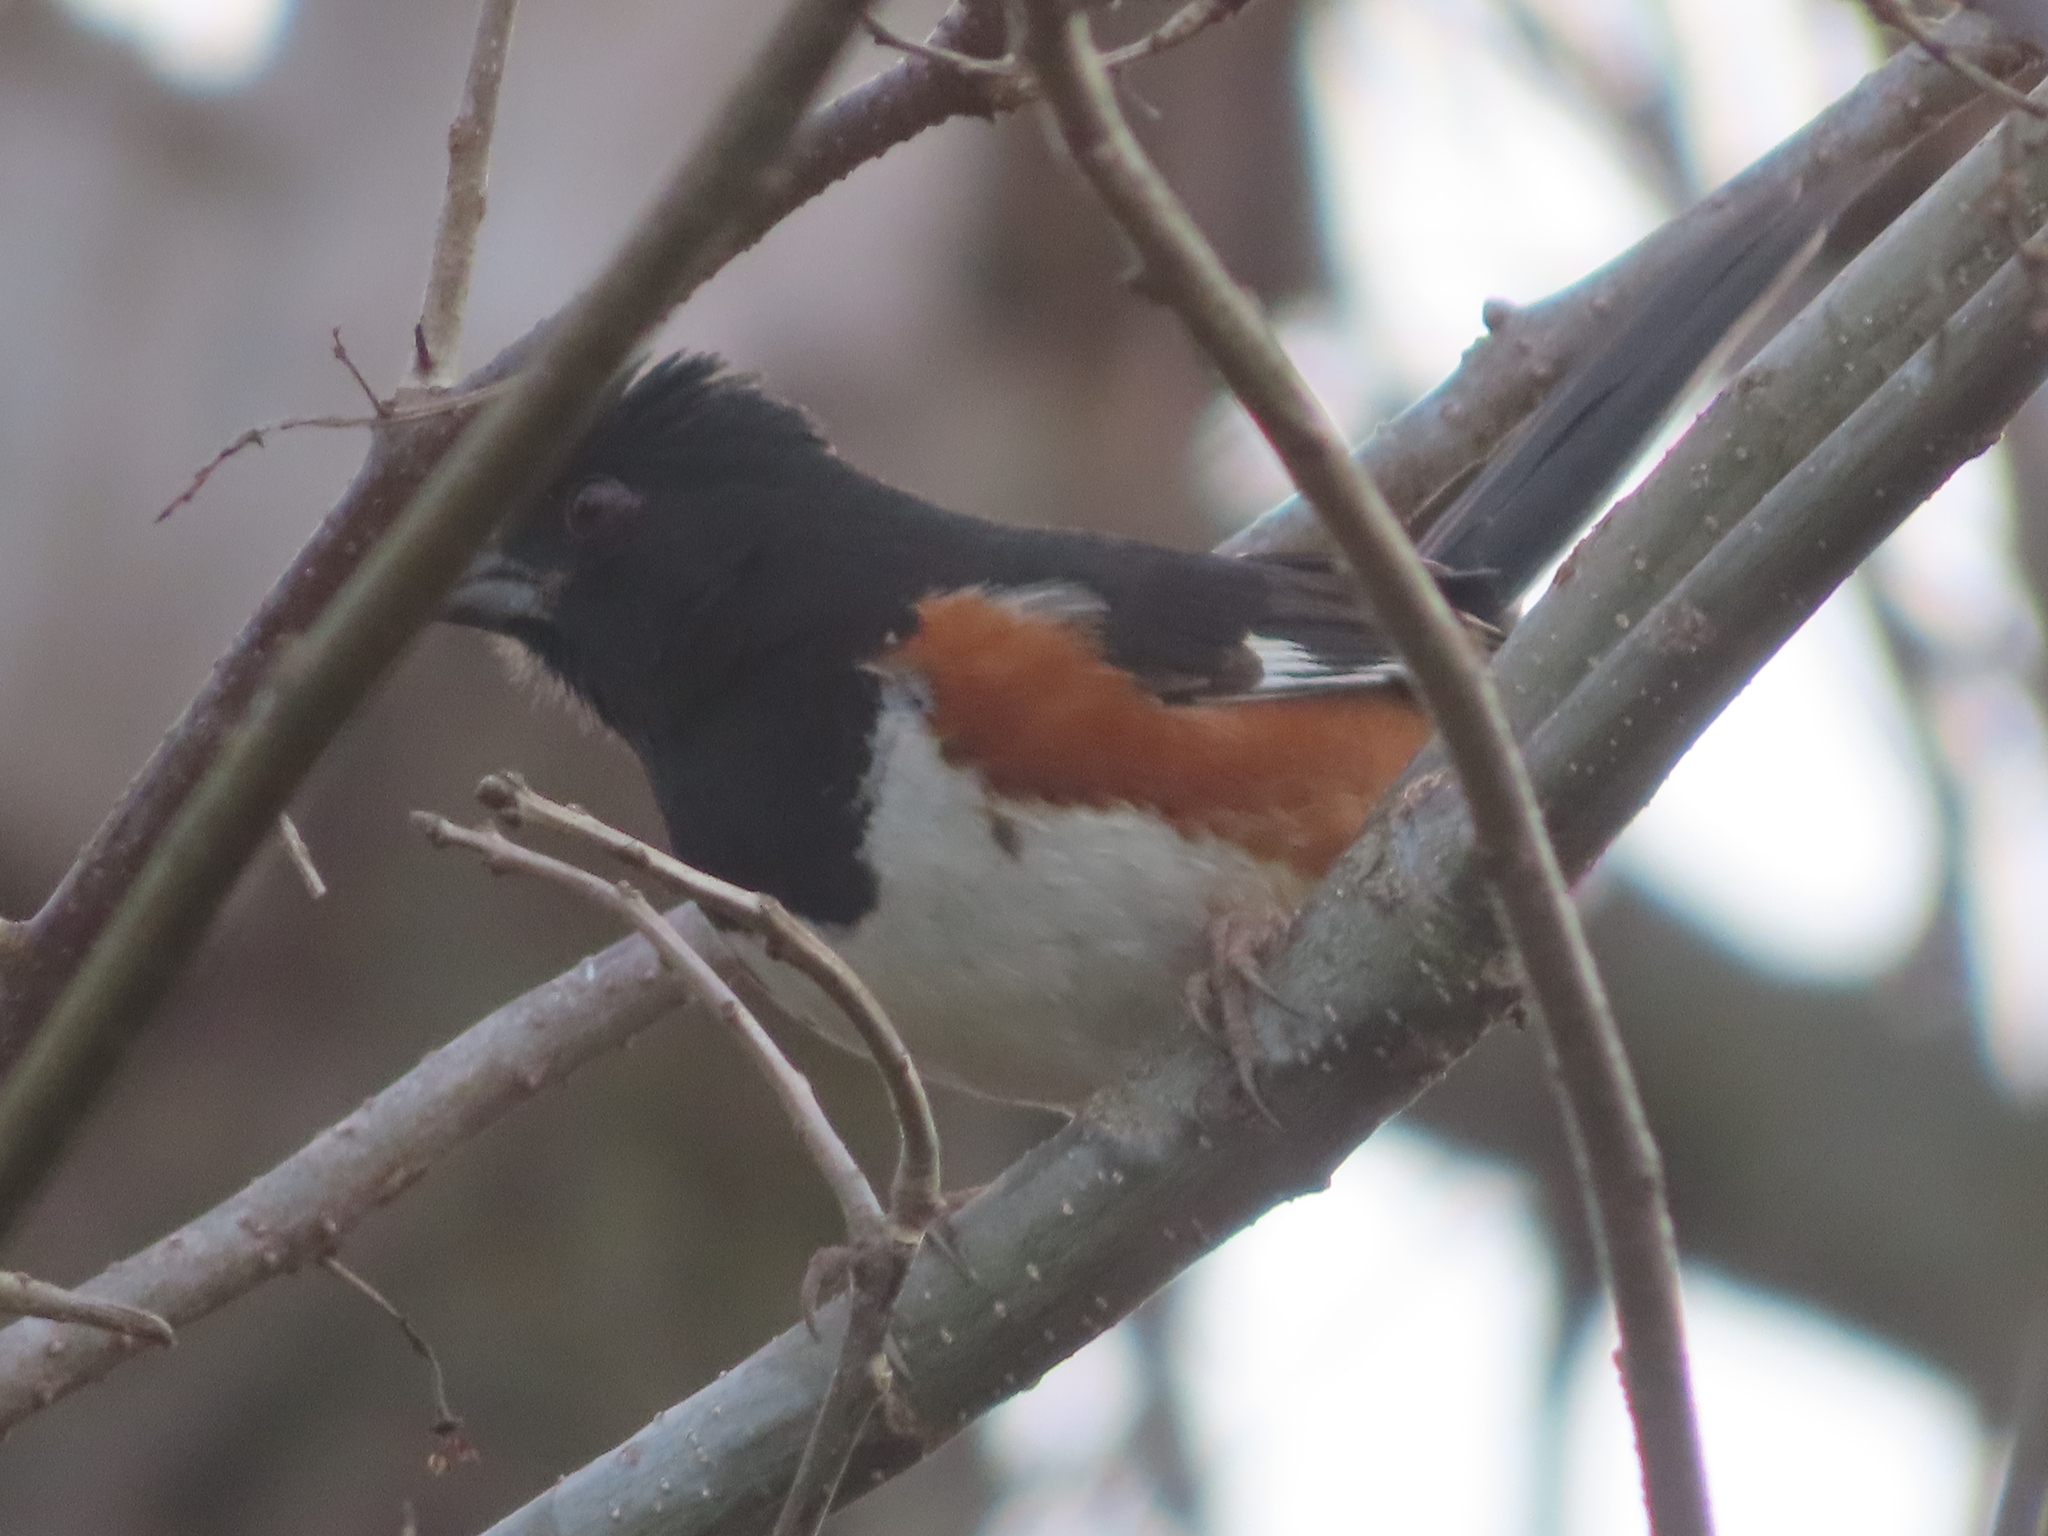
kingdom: Animalia
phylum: Chordata
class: Aves
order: Passeriformes
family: Passerellidae
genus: Pipilo
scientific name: Pipilo erythrophthalmus
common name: Eastern towhee
